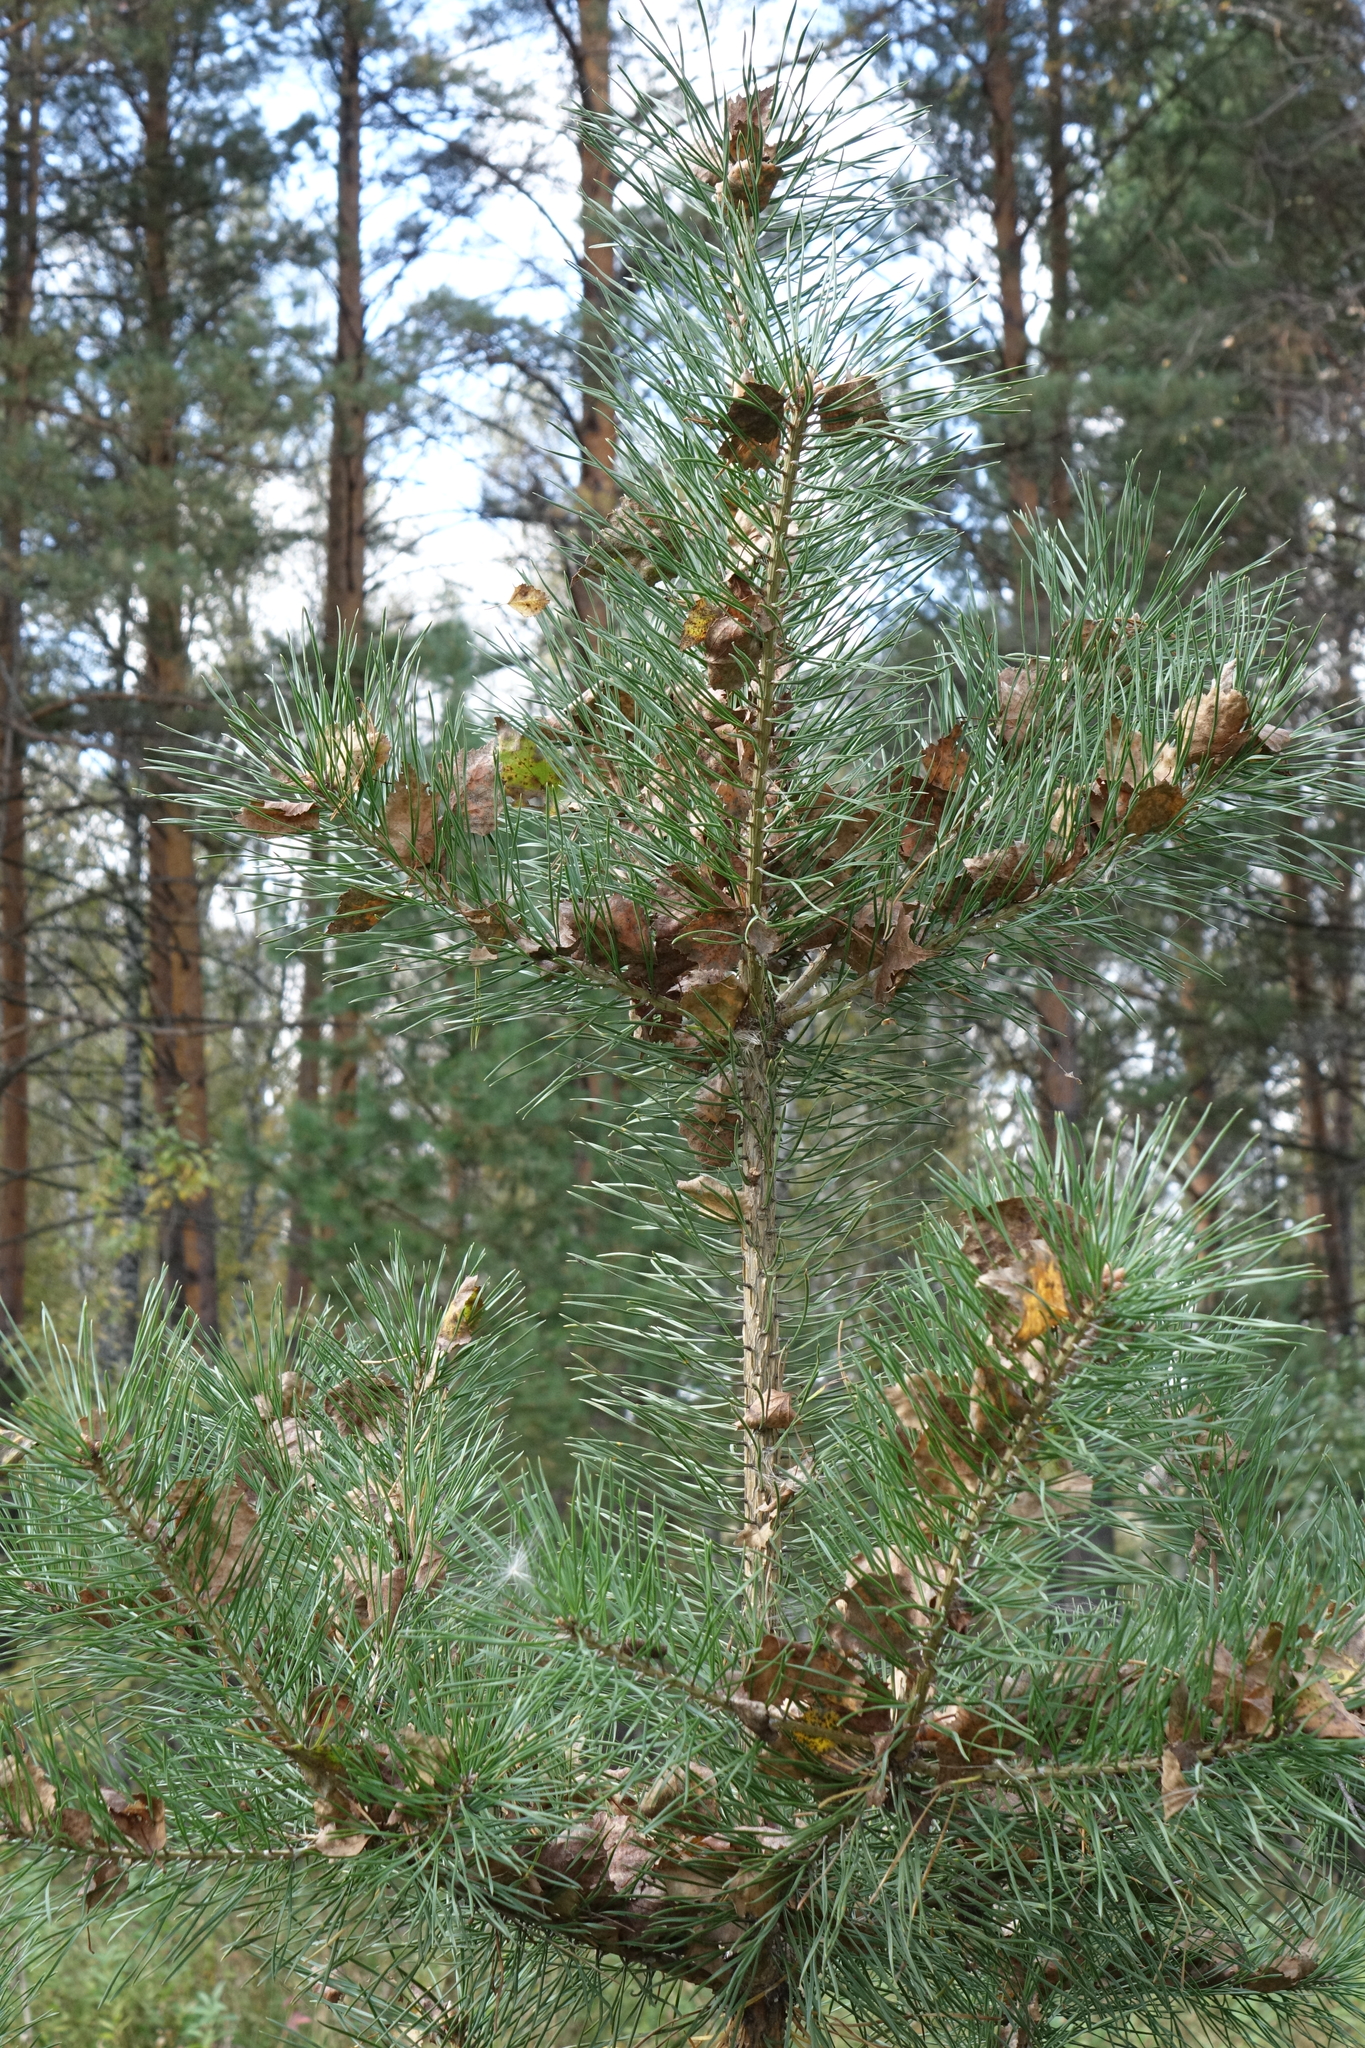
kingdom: Plantae
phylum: Tracheophyta
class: Pinopsida
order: Pinales
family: Pinaceae
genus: Pinus
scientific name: Pinus sylvestris
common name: Scots pine
